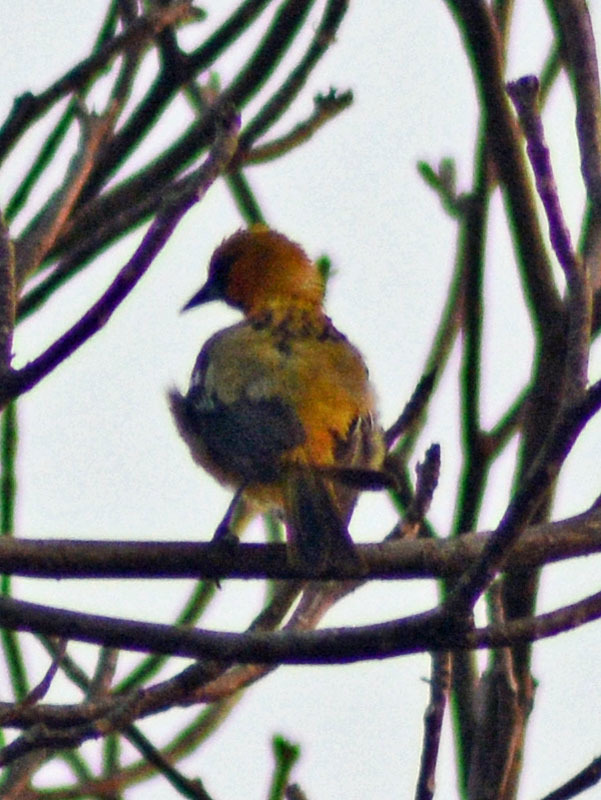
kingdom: Animalia
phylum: Chordata
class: Aves
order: Passeriformes
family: Icteridae
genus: Icterus
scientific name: Icterus pustulatus
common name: Streak-backed oriole
